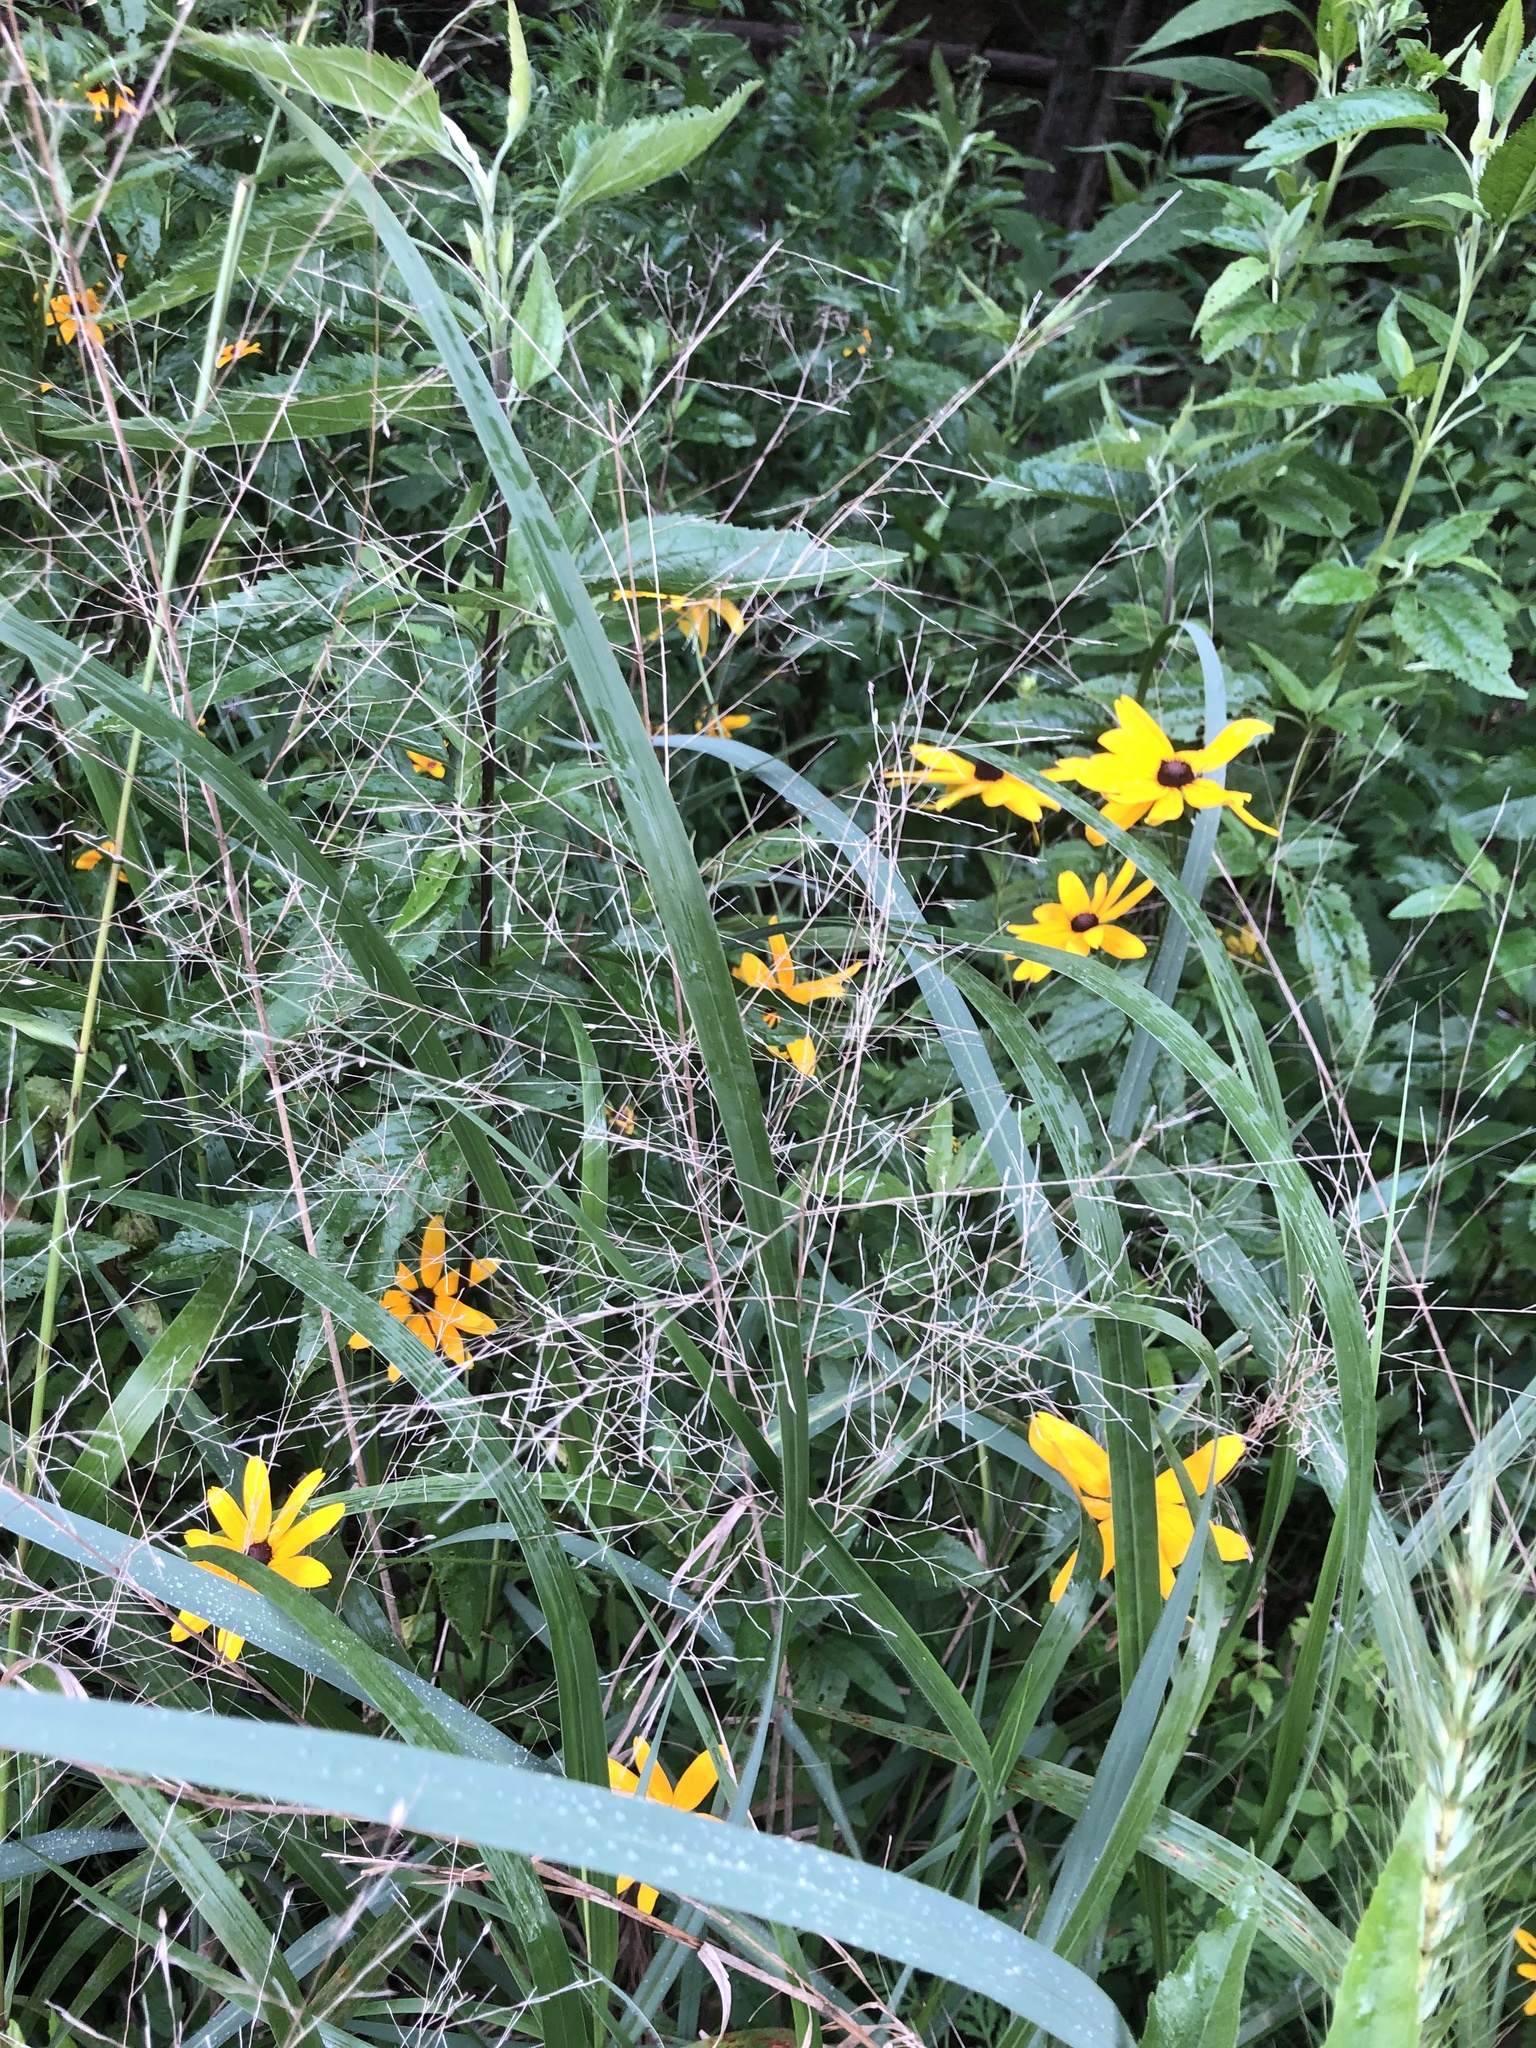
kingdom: Plantae
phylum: Tracheophyta
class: Liliopsida
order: Poales
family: Poaceae
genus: Tripsacum
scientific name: Tripsacum dactyloides
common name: Buffalo-grass
